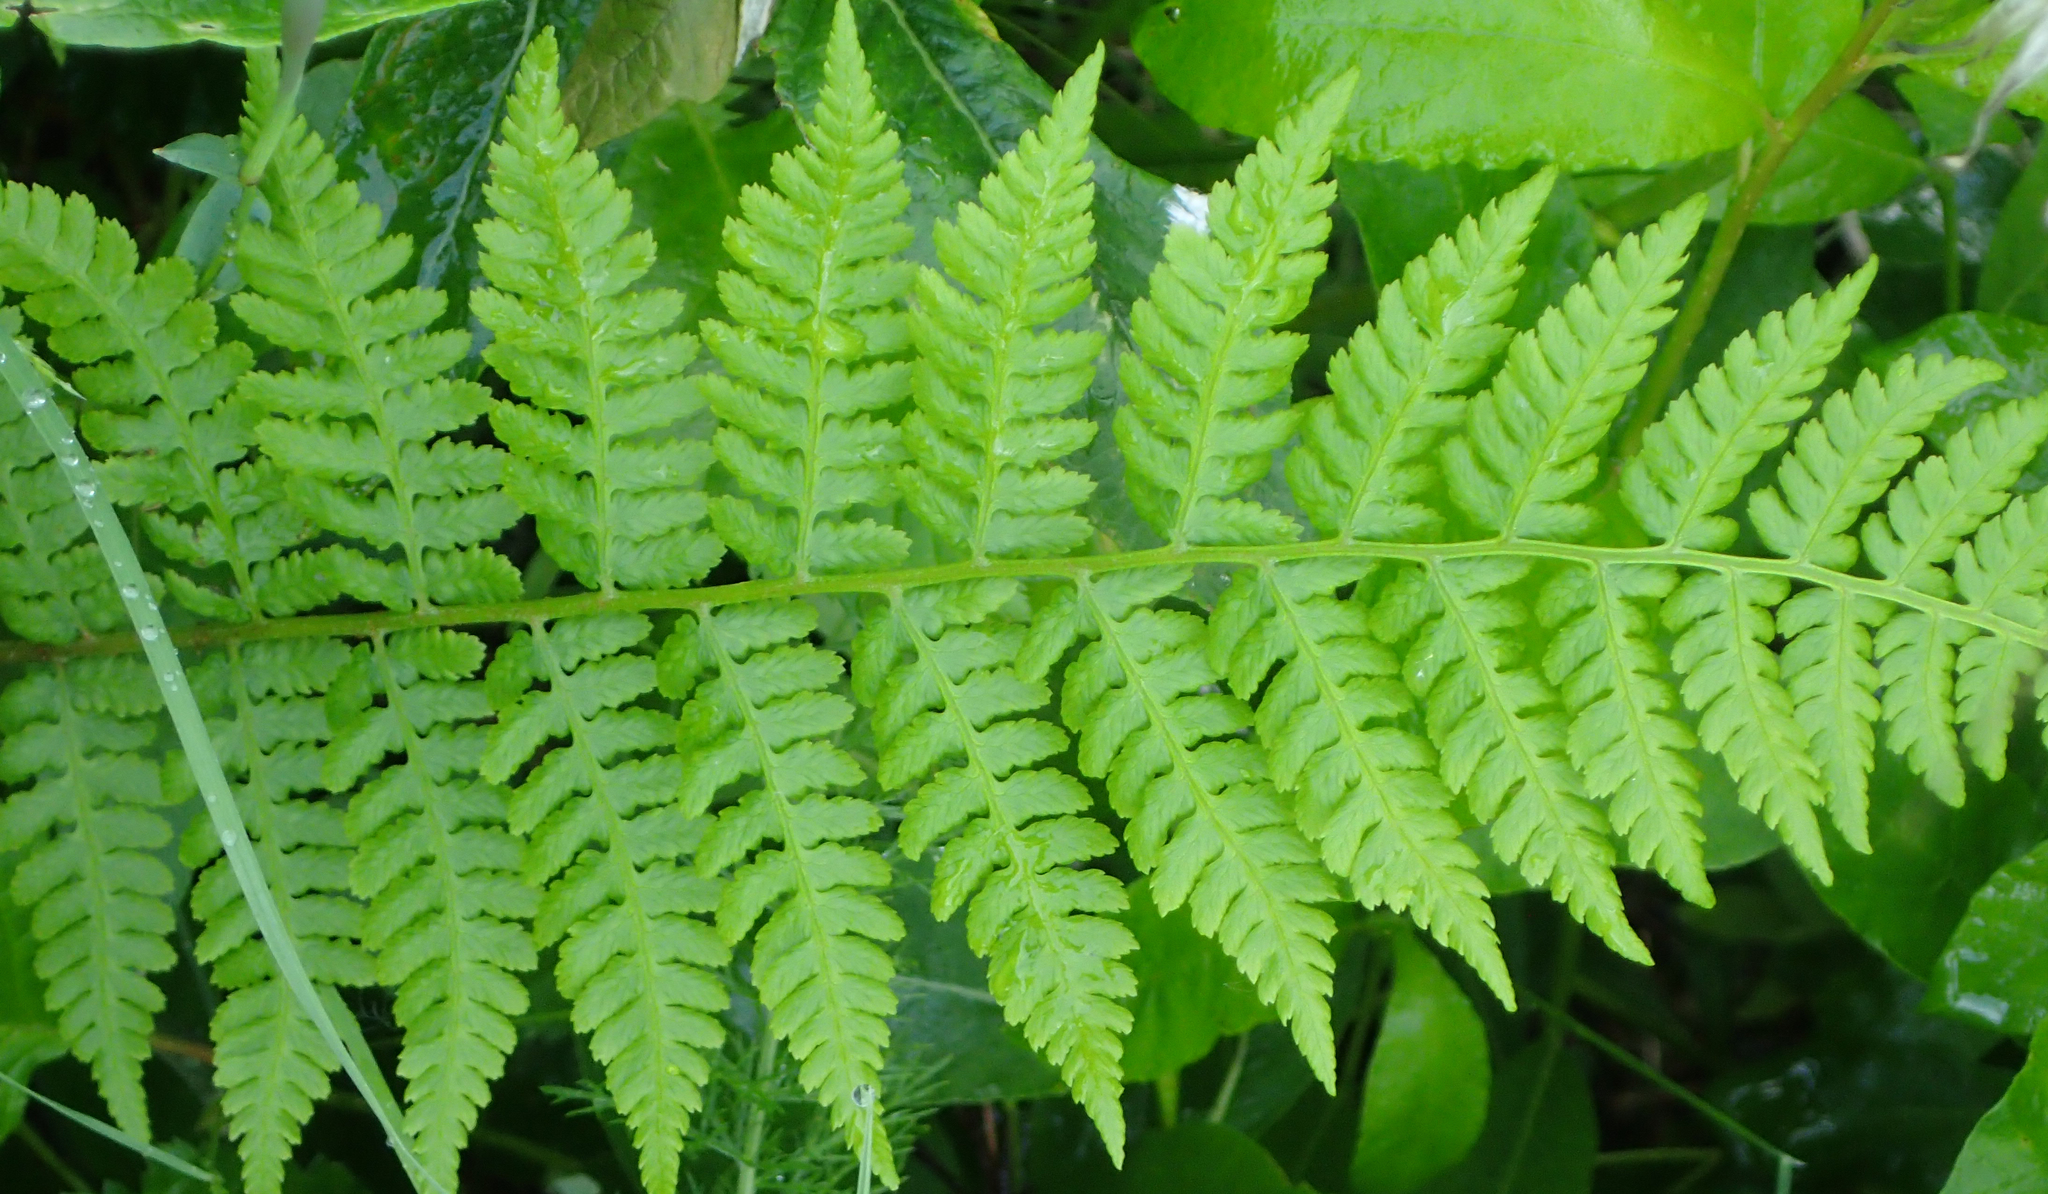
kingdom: Plantae
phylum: Tracheophyta
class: Polypodiopsida
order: Polypodiales
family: Athyriaceae
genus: Athyrium
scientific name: Athyrium filix-femina
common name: Lady fern
